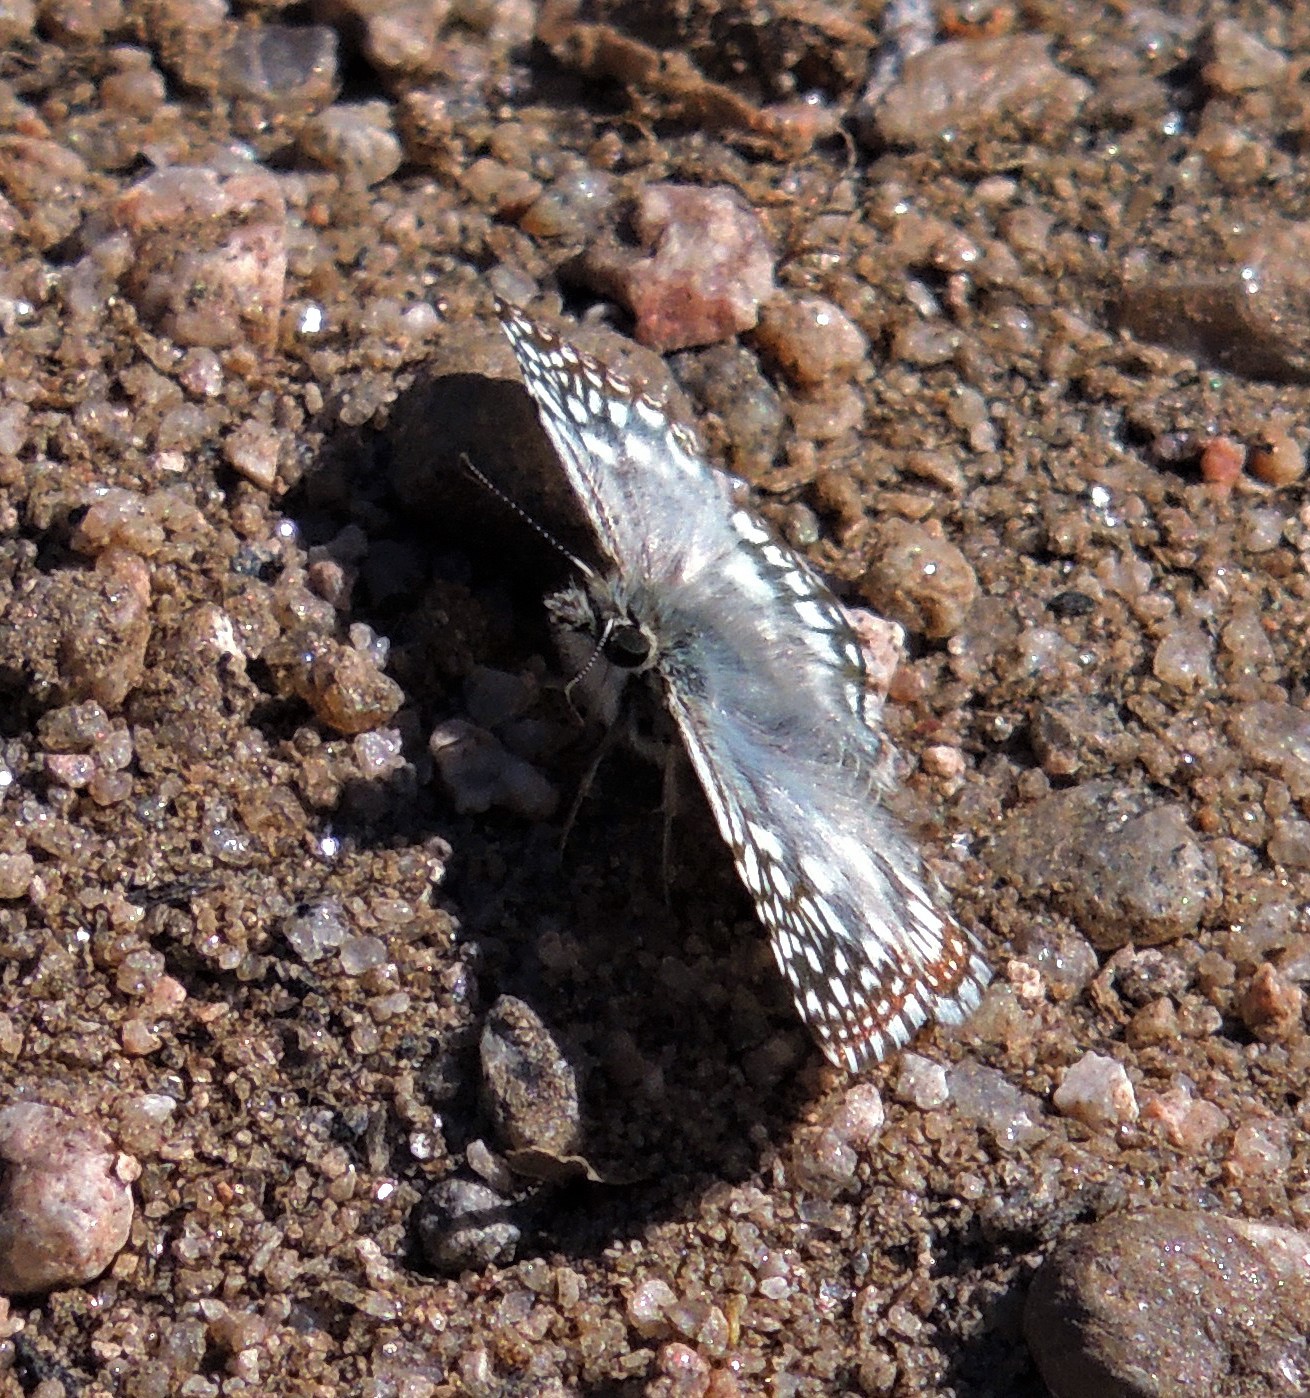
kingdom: Animalia
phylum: Arthropoda
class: Insecta
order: Lepidoptera
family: Hesperiidae
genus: Pyrgus
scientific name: Pyrgus oileus
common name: Tropical checkered-skipper
